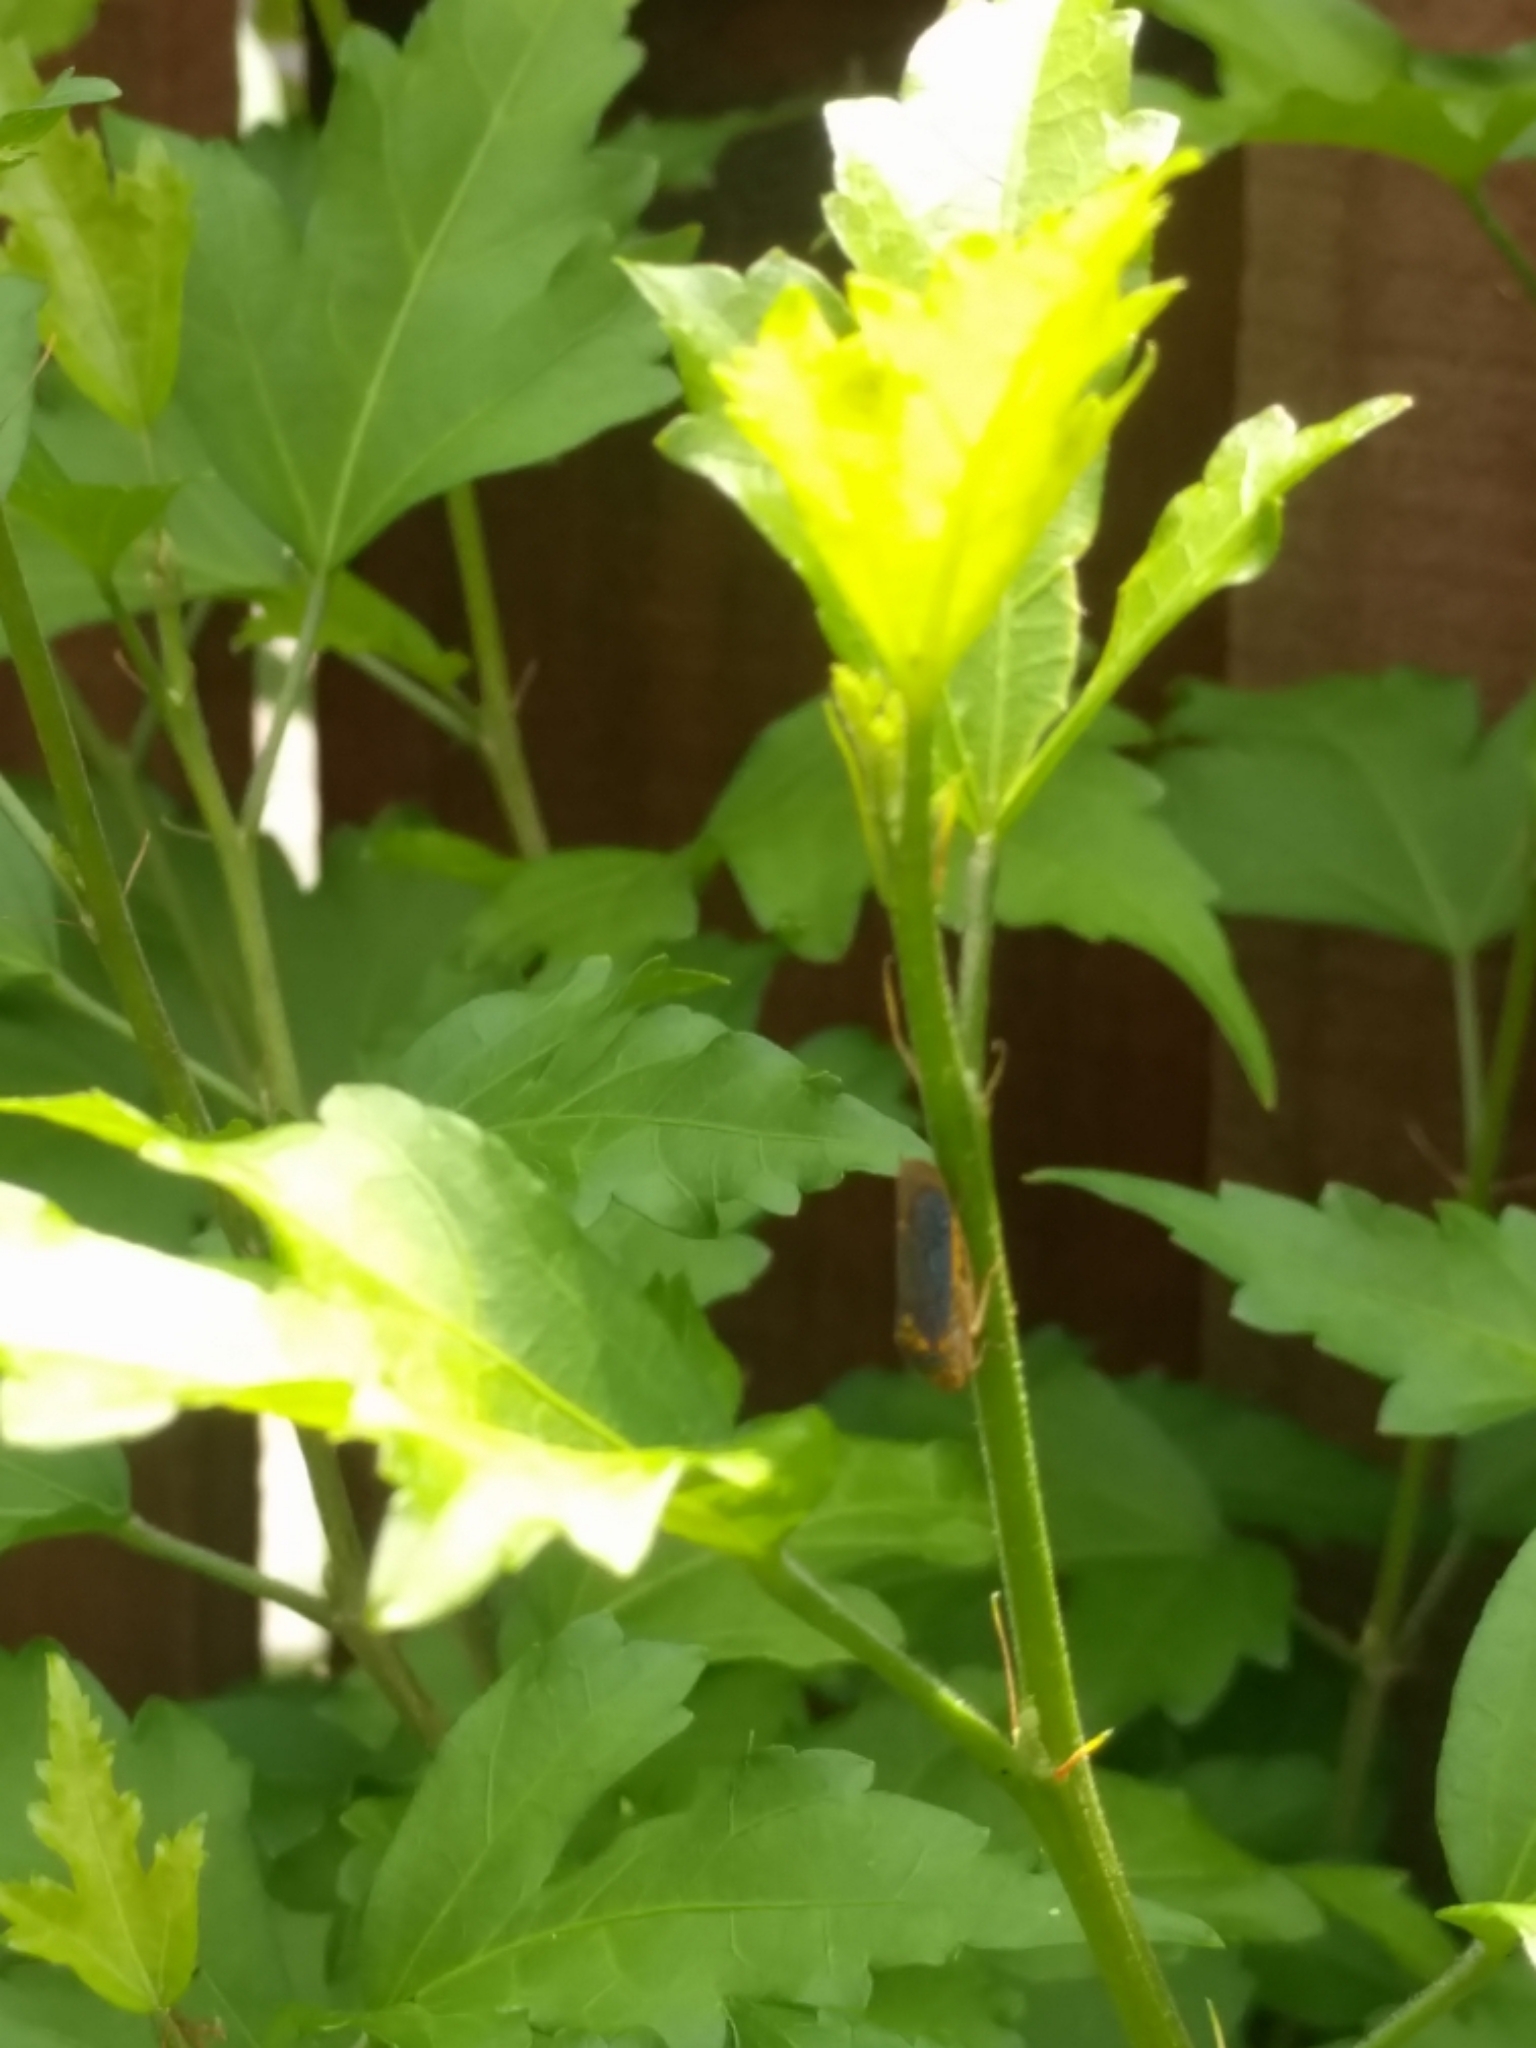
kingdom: Animalia
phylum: Arthropoda
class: Insecta
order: Hemiptera
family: Cicadellidae
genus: Oncometopia
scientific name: Oncometopia orbona
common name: Broad-headed sharpshooter
